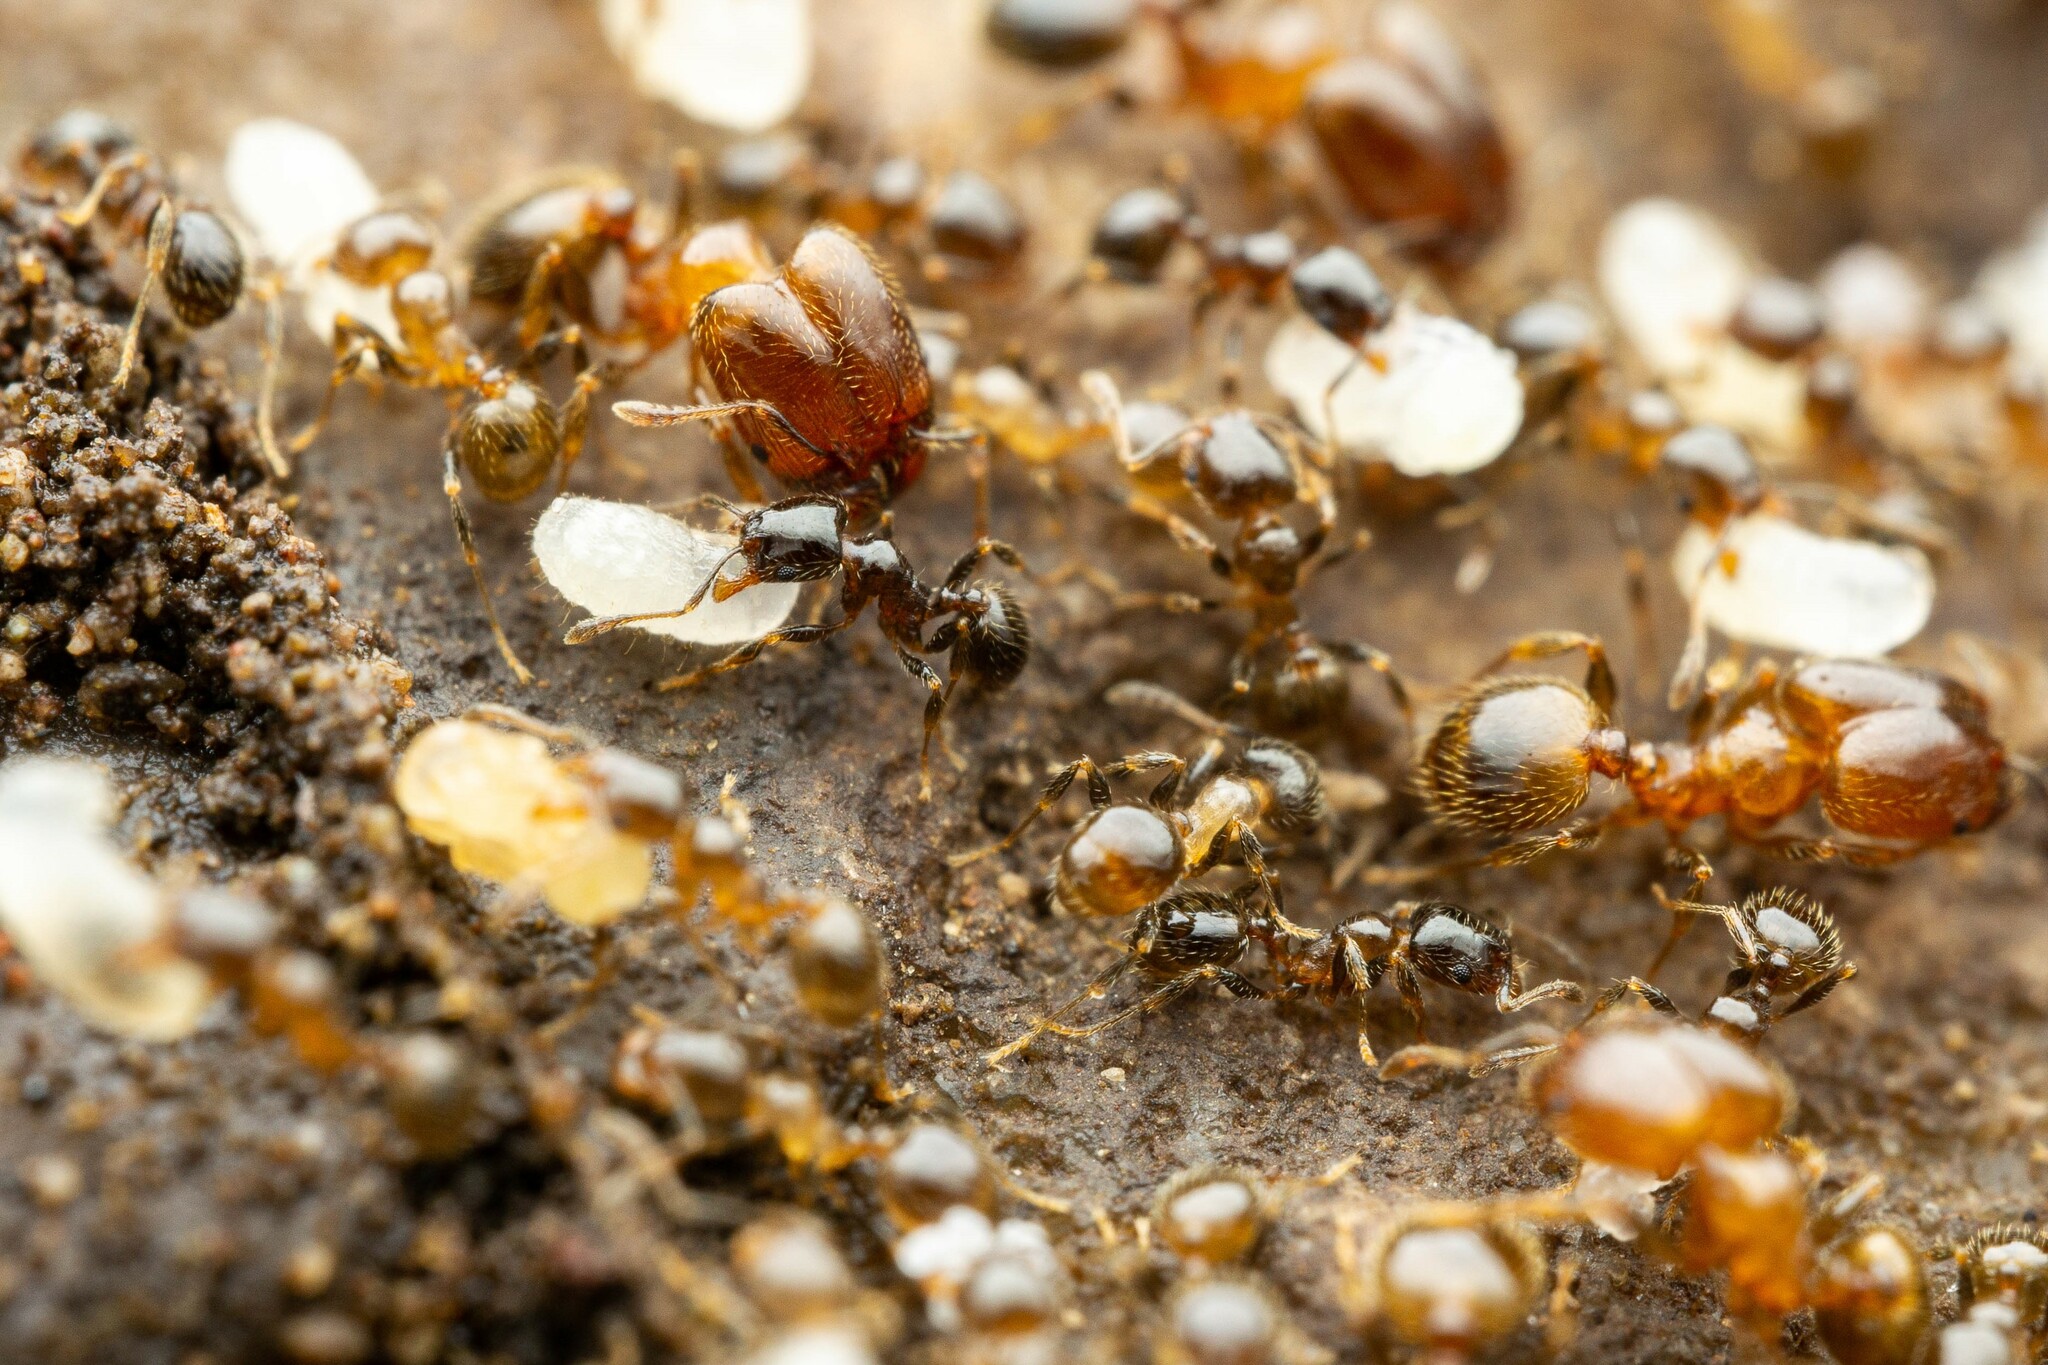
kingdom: Animalia
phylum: Arthropoda
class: Insecta
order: Hymenoptera
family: Formicidae
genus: Pheidole
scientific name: Pheidole bicarinata
